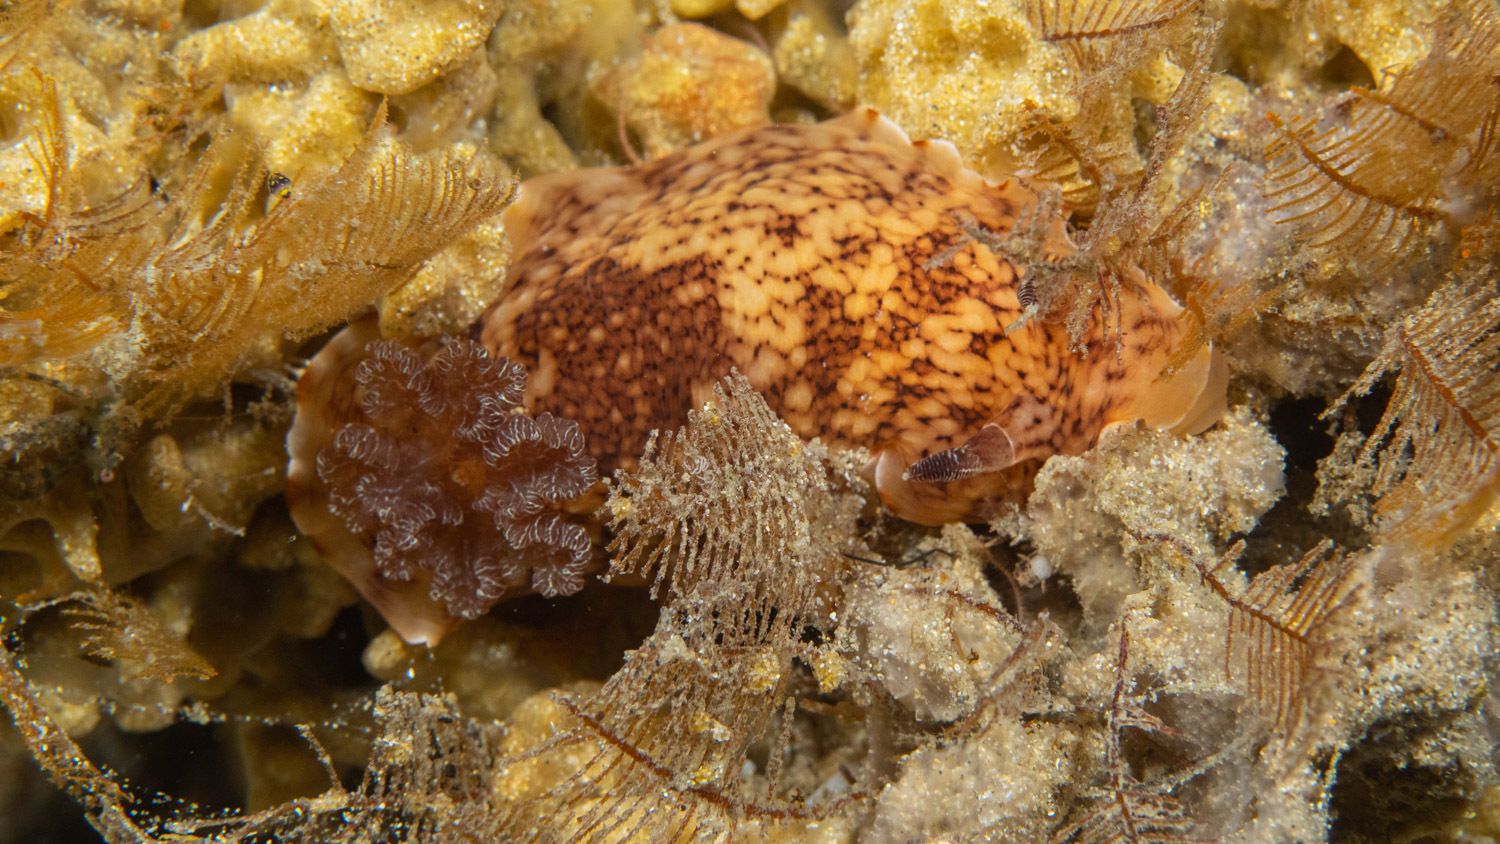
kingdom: Animalia
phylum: Mollusca
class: Gastropoda
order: Nudibranchia
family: Dorididae
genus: Aphelodoris
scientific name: Aphelodoris rossquicki
